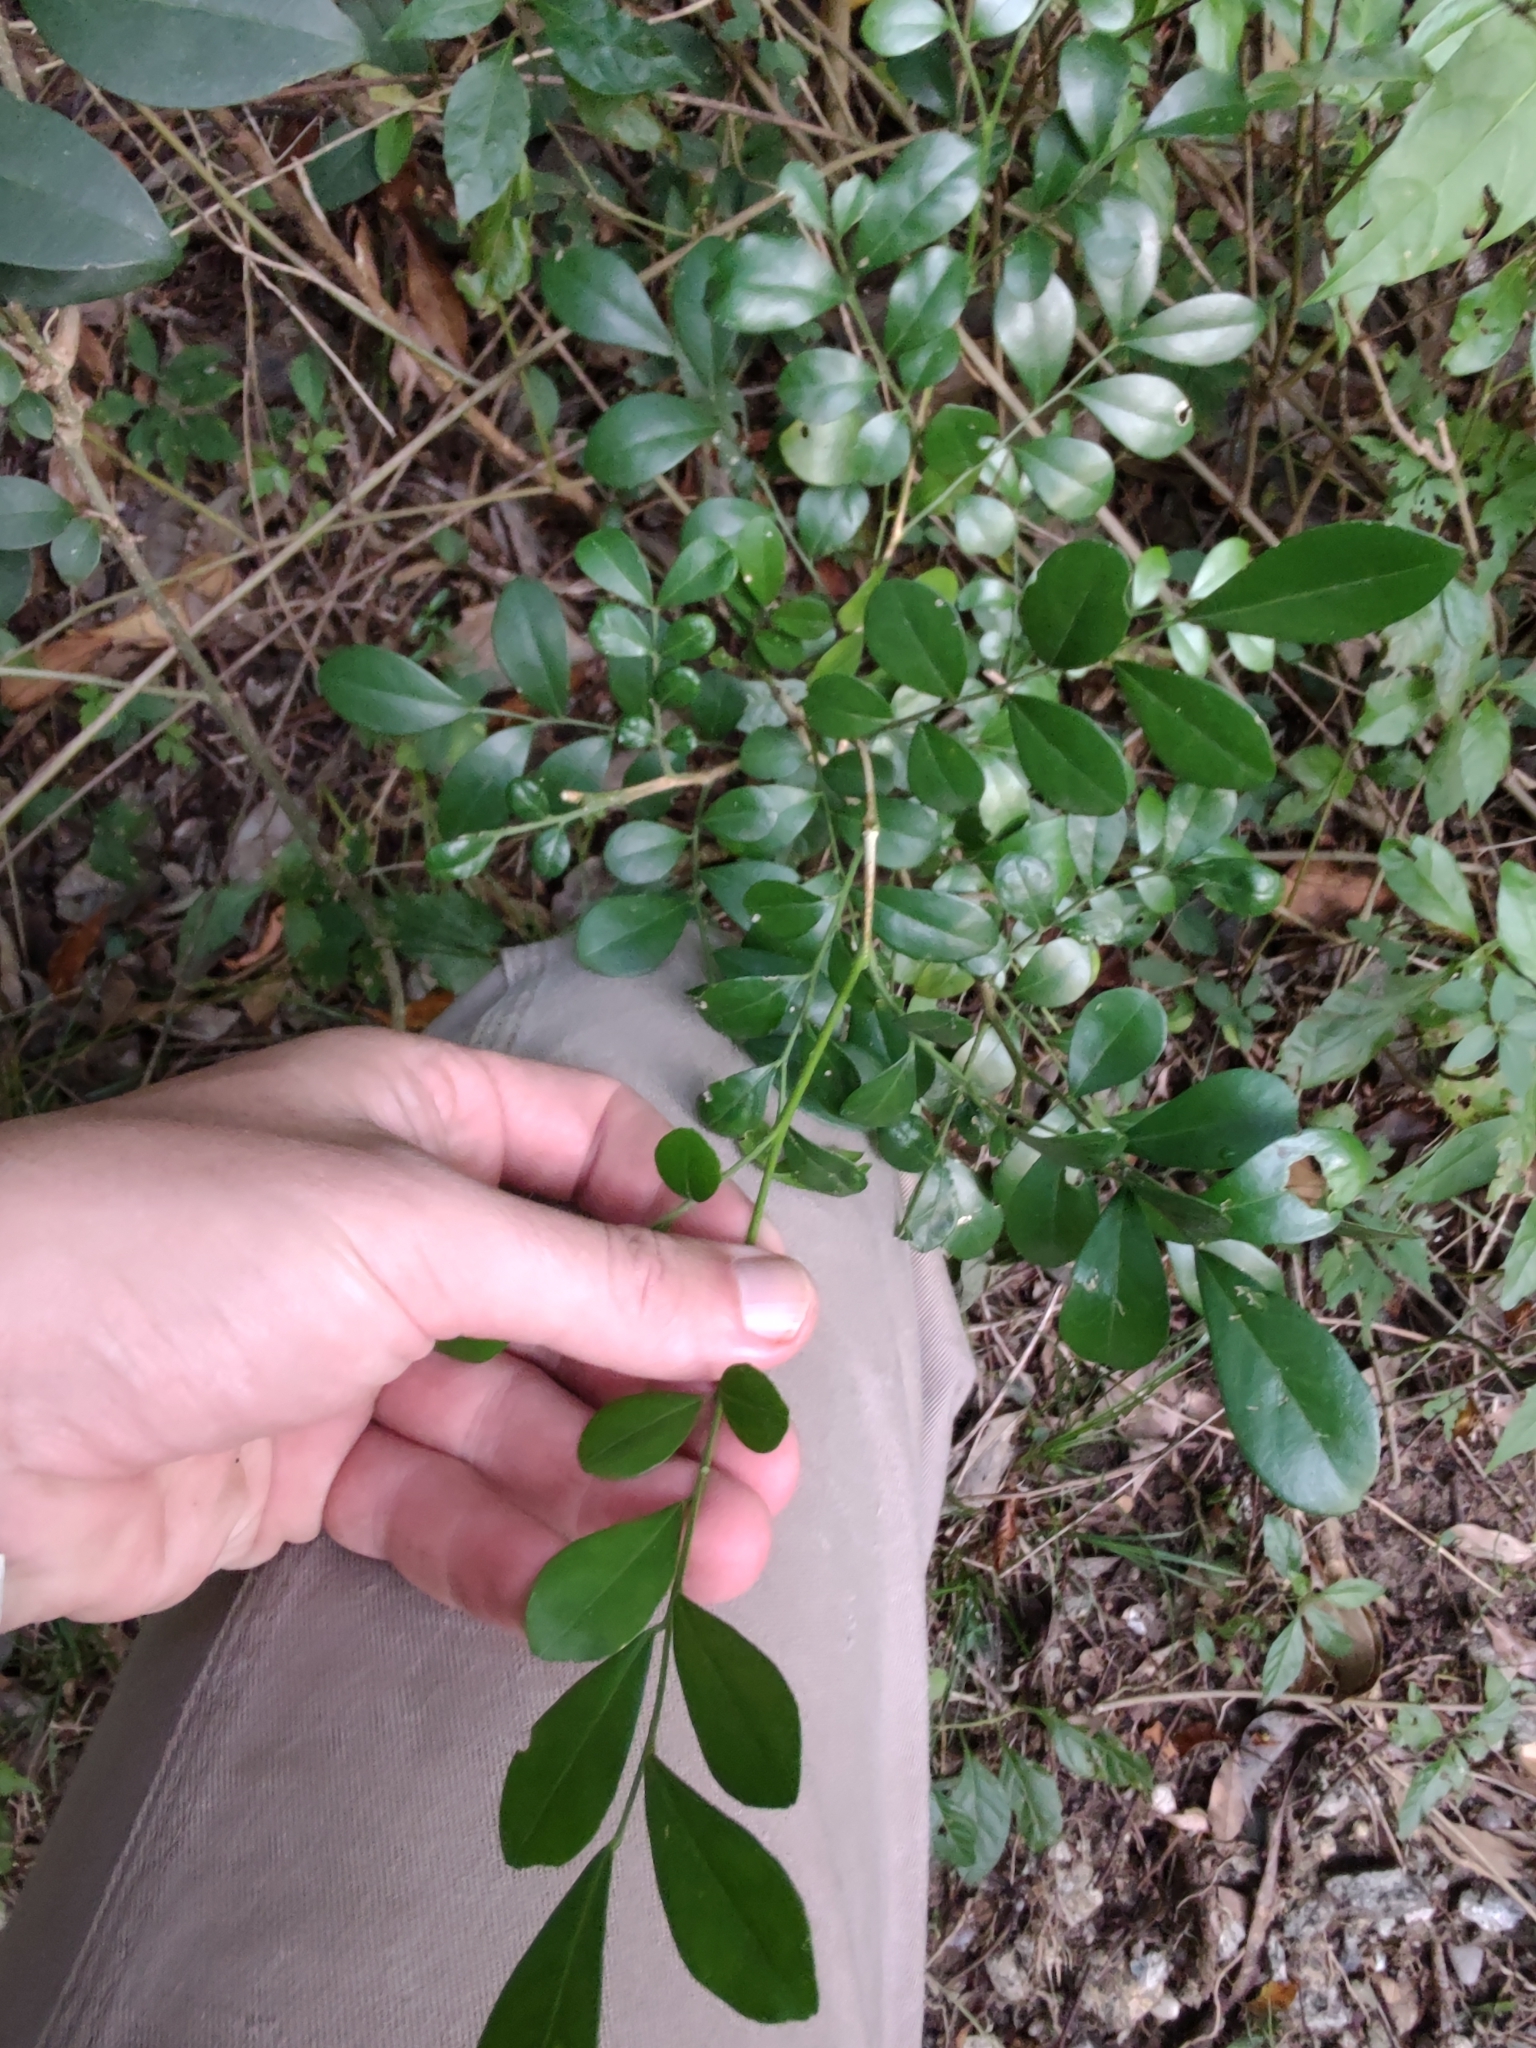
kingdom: Plantae
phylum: Tracheophyta
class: Magnoliopsida
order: Celastrales
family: Celastraceae
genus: Schaefferia
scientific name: Schaefferia argentinensis
